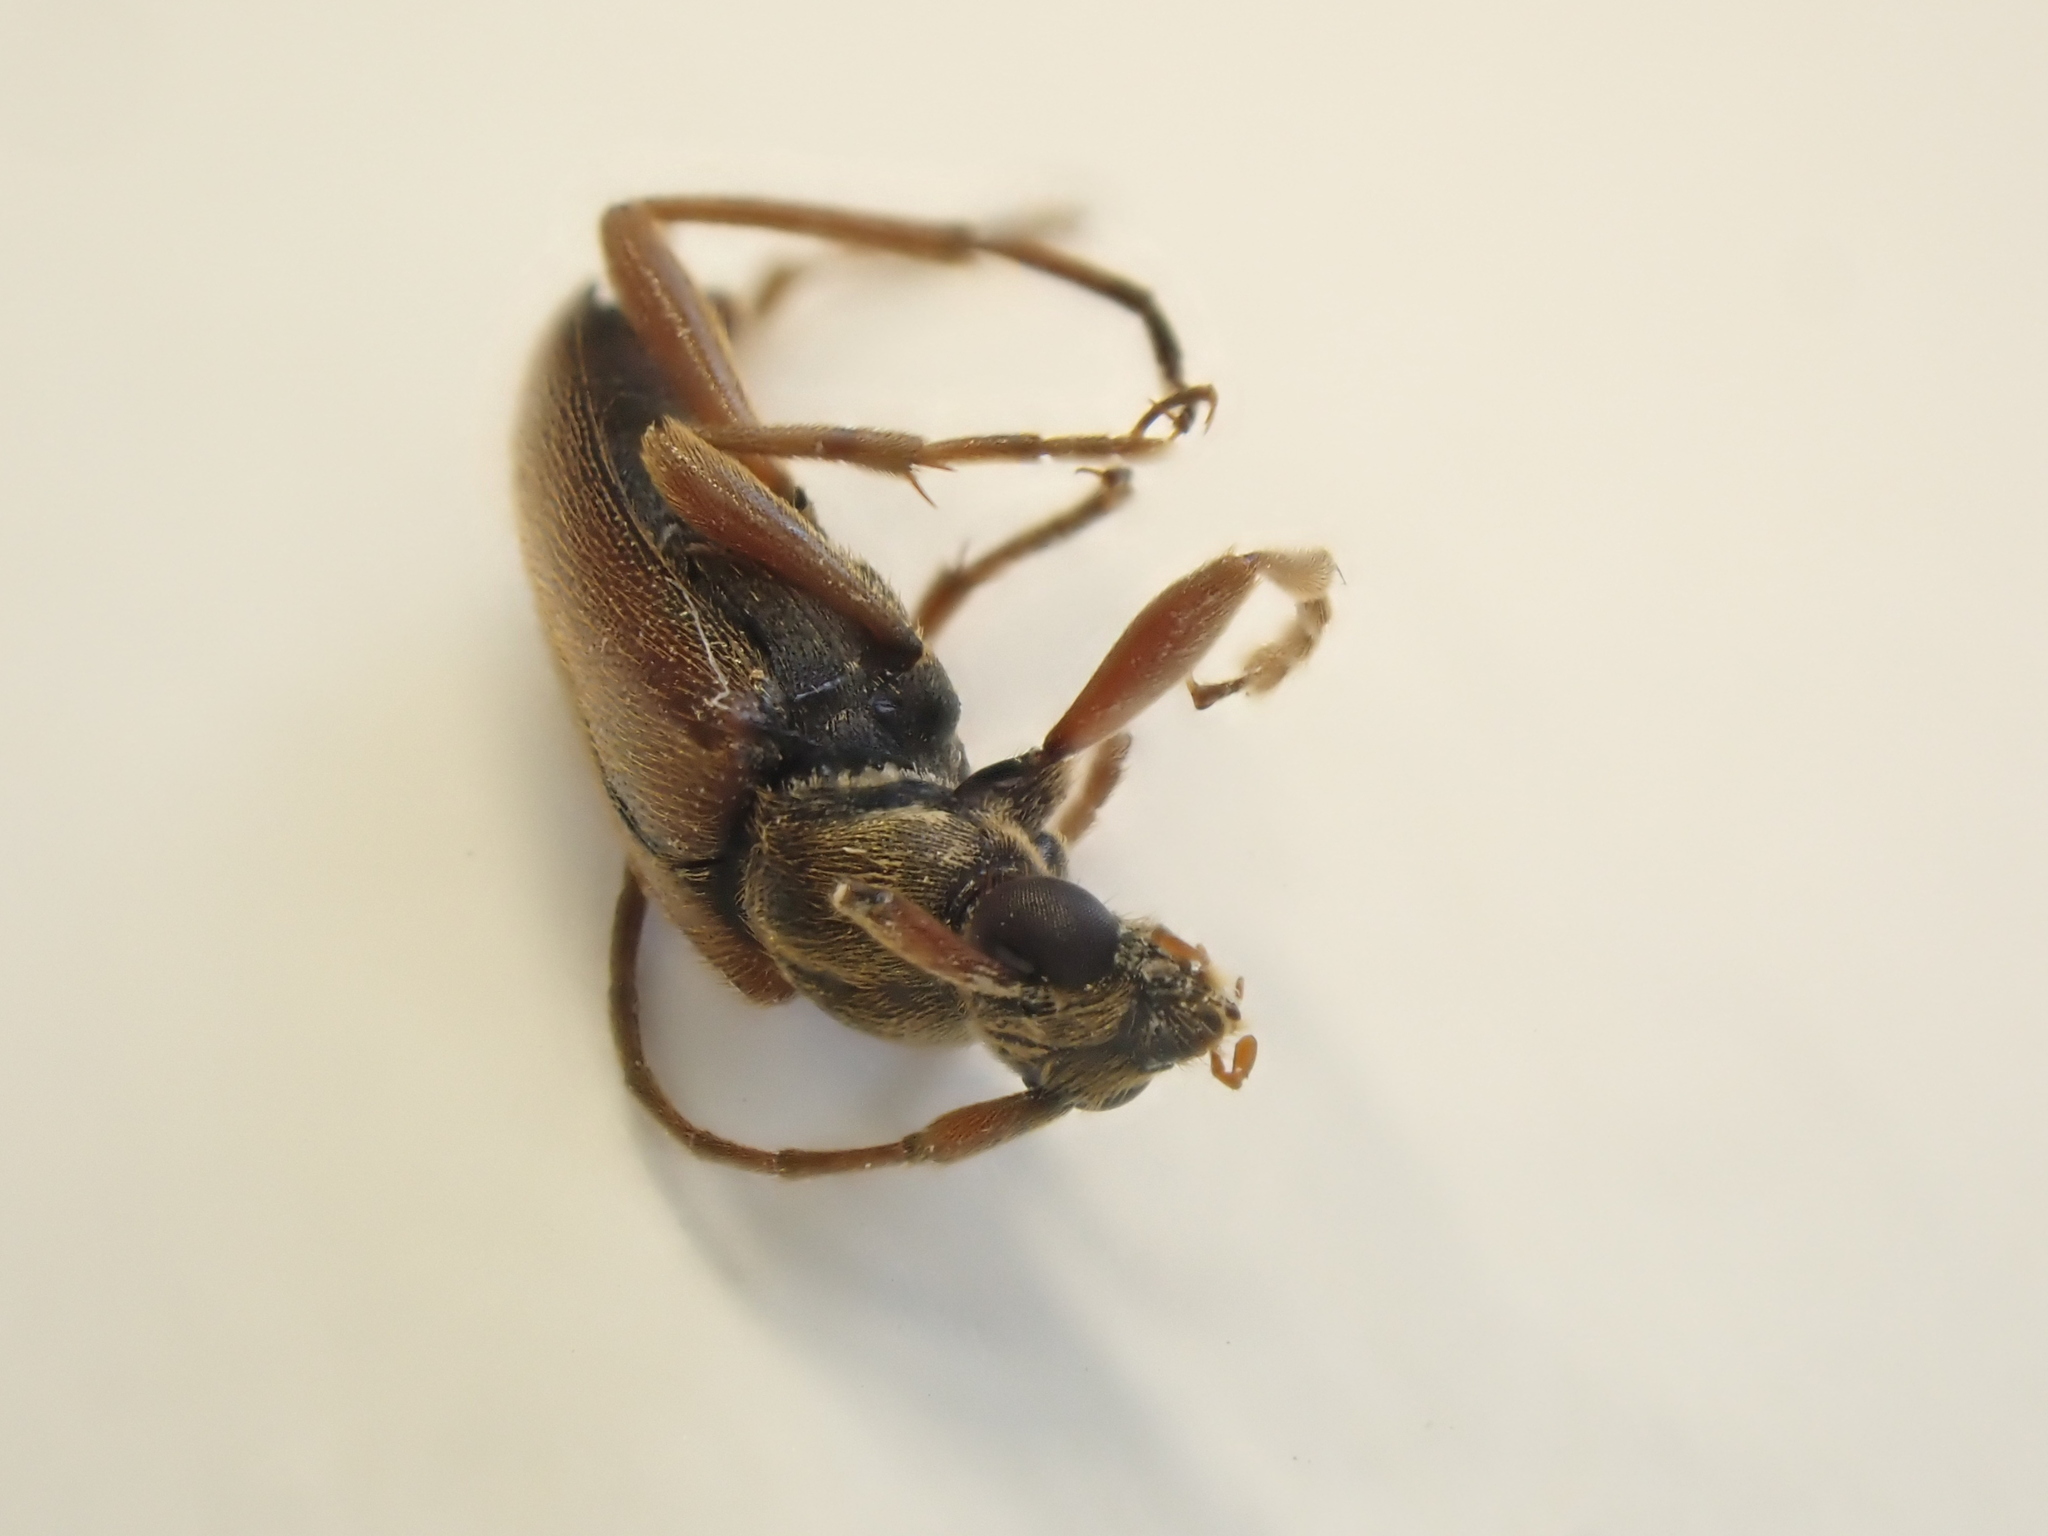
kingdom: Animalia
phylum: Arthropoda
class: Insecta
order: Coleoptera
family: Cerambycidae
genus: Alosterna
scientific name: Alosterna tabacicolor
